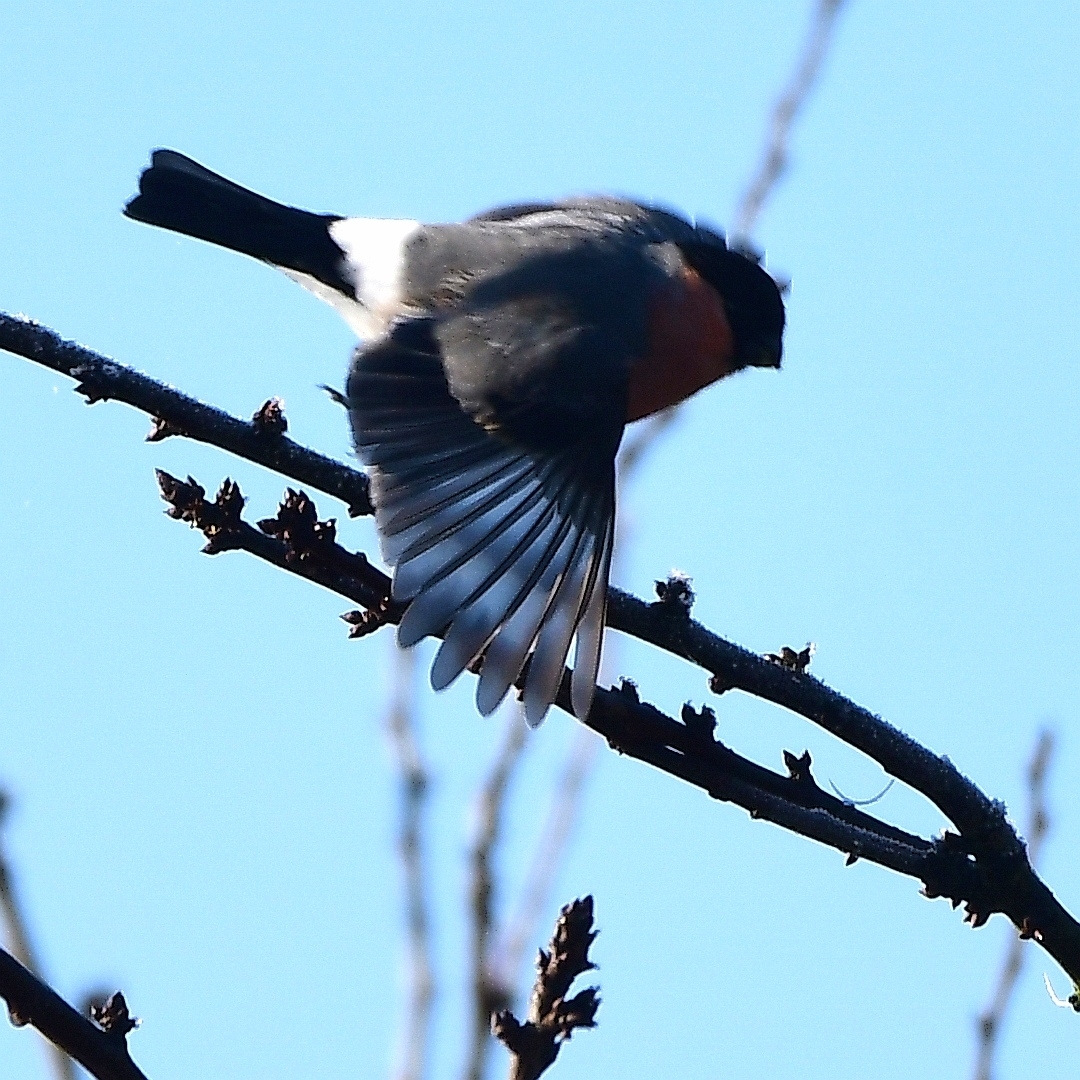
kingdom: Animalia
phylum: Chordata
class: Aves
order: Passeriformes
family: Fringillidae
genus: Pyrrhula
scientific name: Pyrrhula pyrrhula
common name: Eurasian bullfinch
